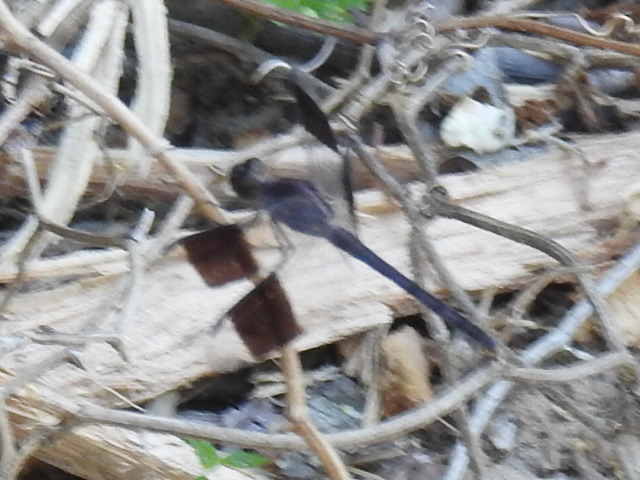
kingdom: Animalia
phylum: Arthropoda
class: Insecta
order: Odonata
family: Libellulidae
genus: Erythrodiplax
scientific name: Erythrodiplax umbrata
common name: Band-winged dragonlet
